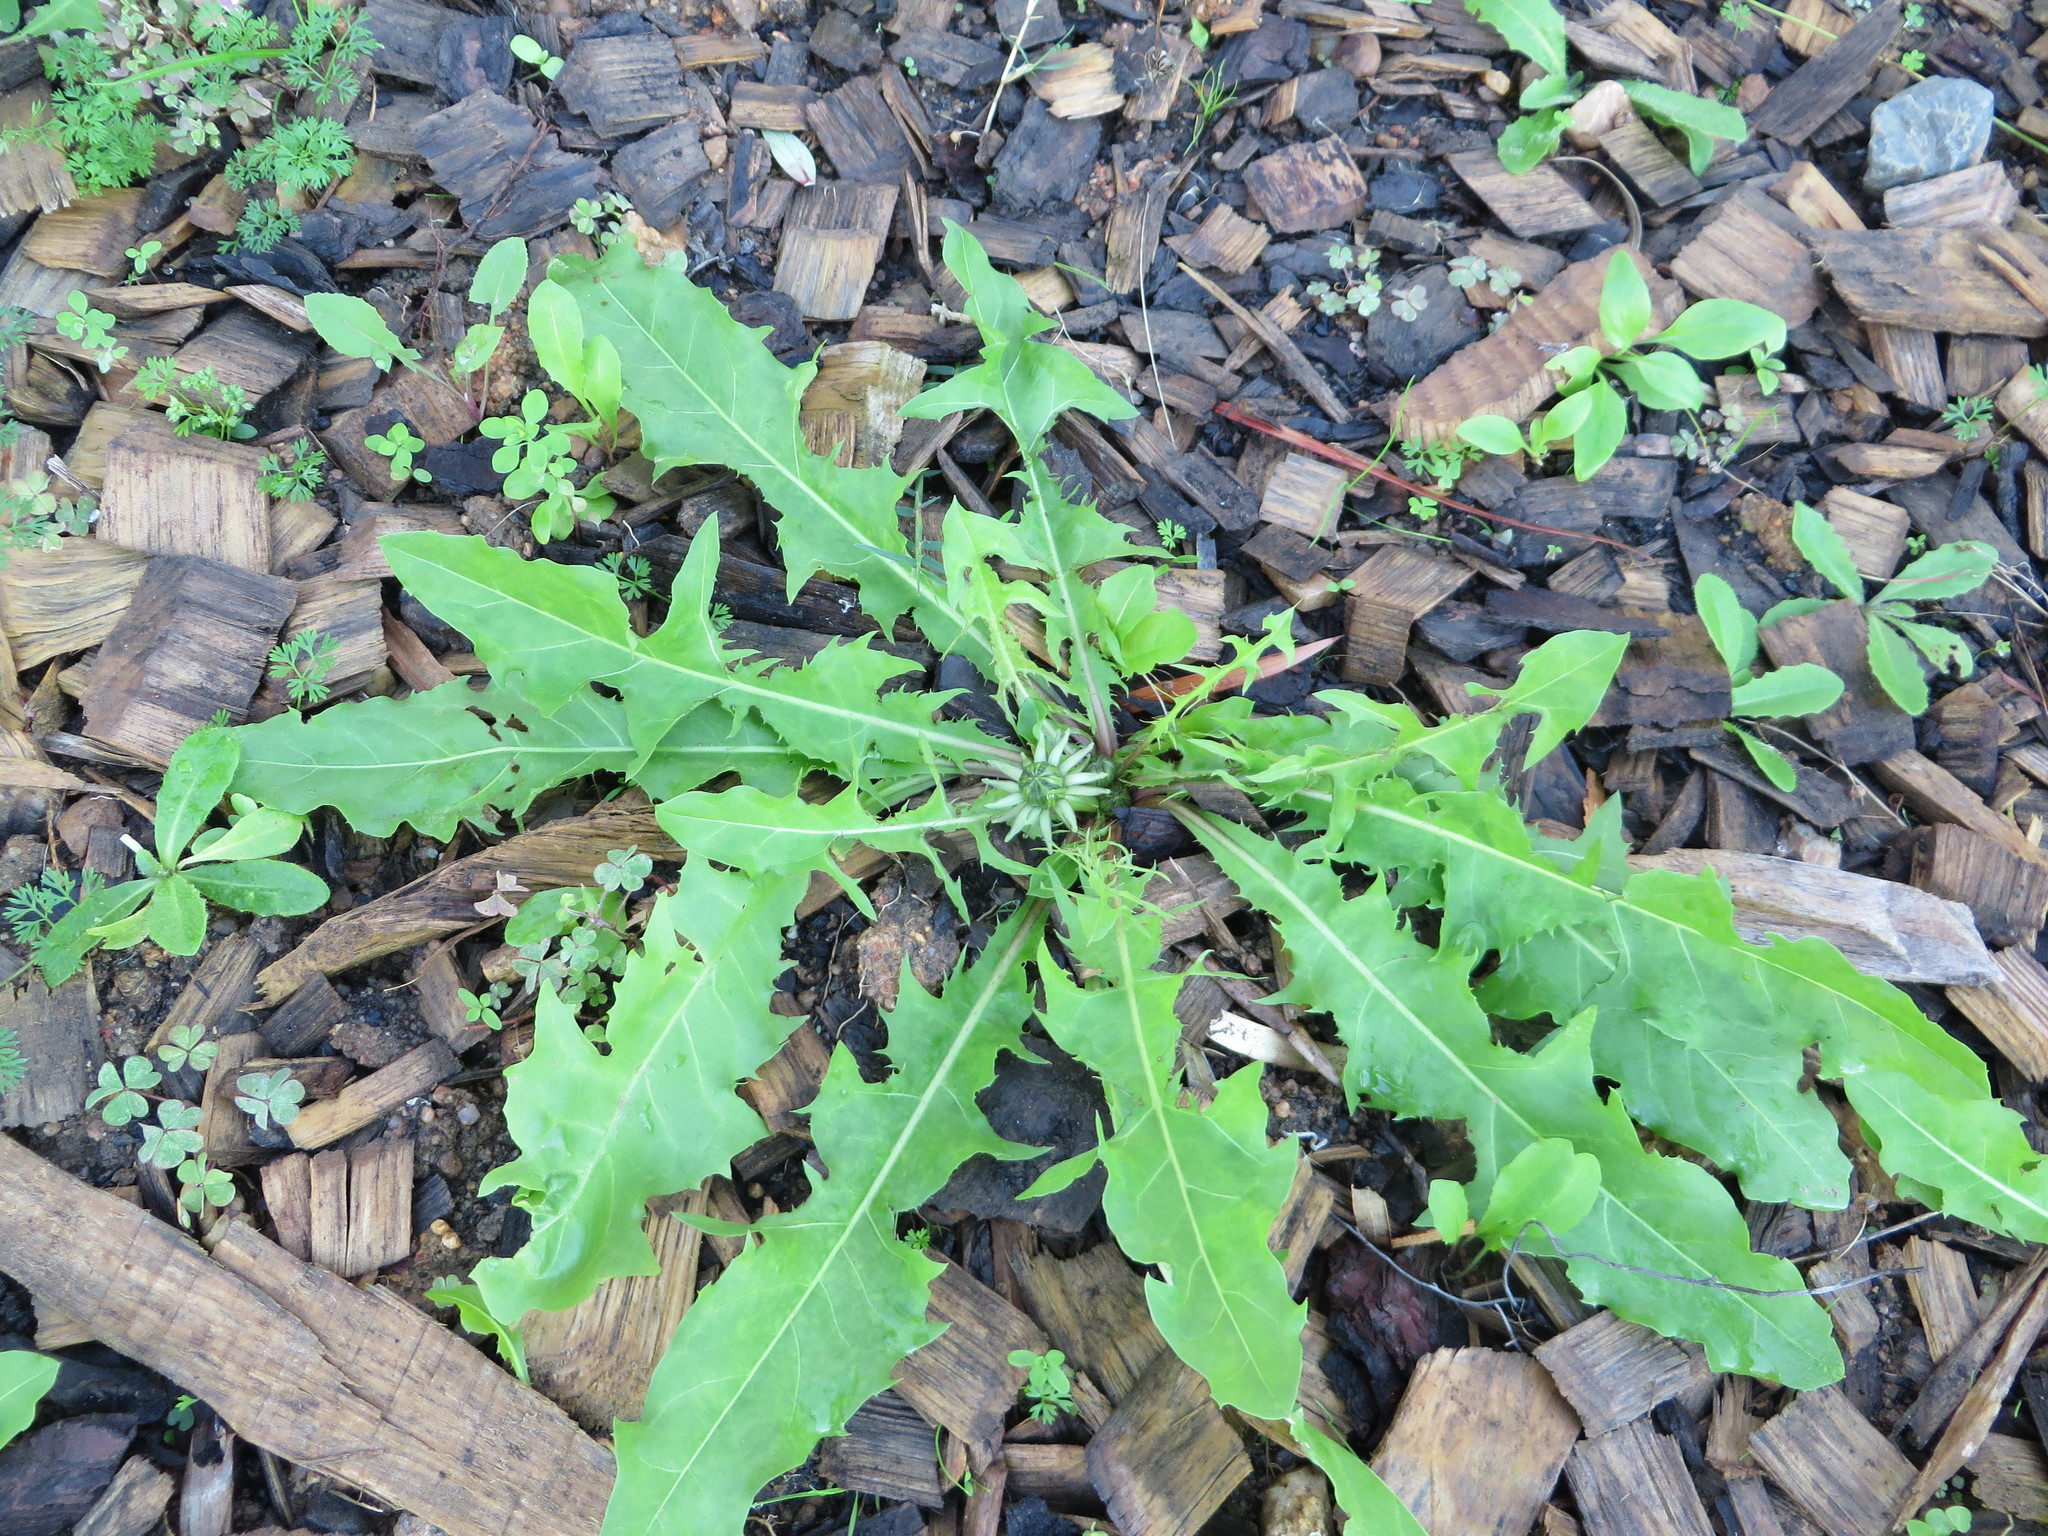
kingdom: Plantae
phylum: Tracheophyta
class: Magnoliopsida
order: Asterales
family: Asteraceae
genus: Taraxacum
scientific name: Taraxacum officinale
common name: Common dandelion
